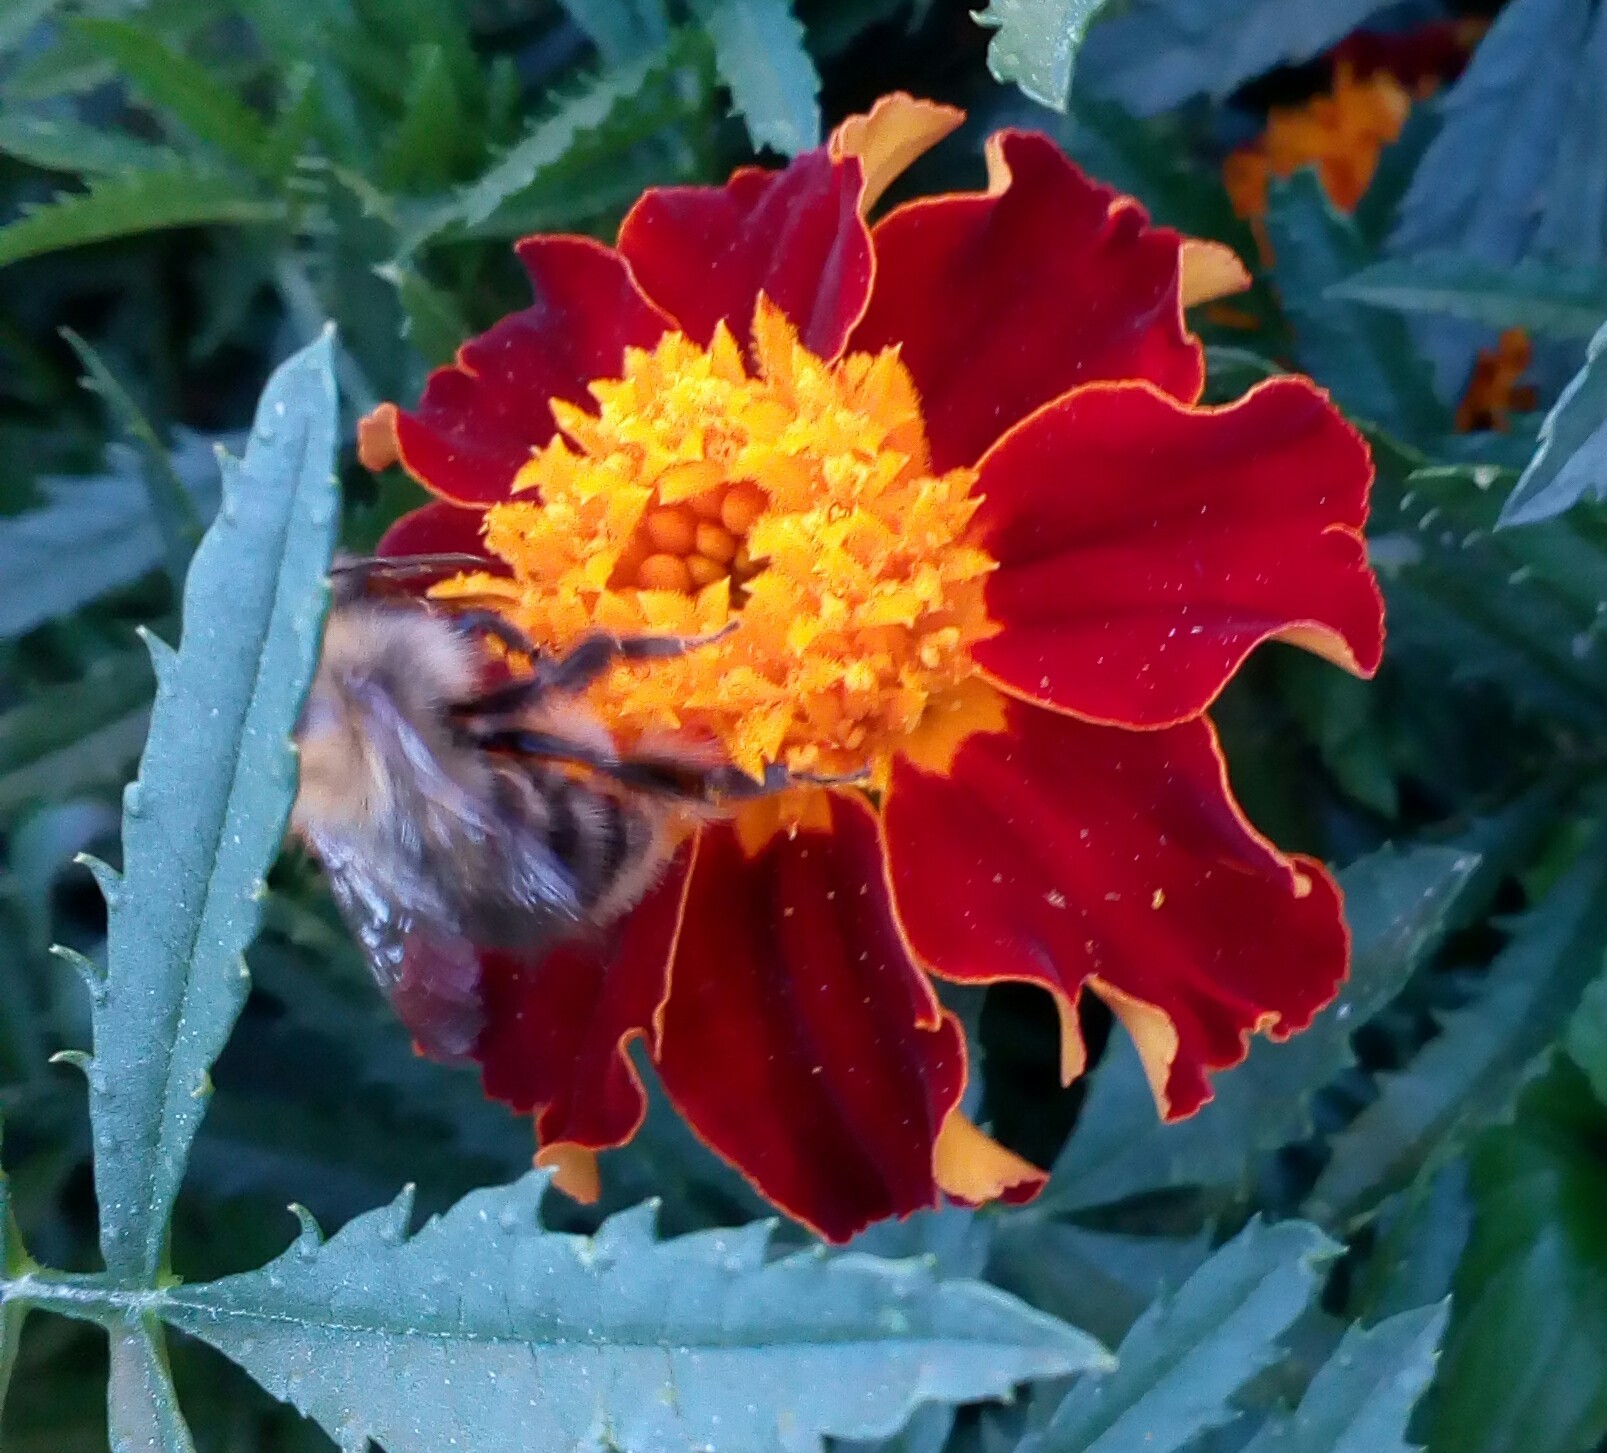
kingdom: Animalia
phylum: Arthropoda
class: Insecta
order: Hymenoptera
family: Apidae
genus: Bombus
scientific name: Bombus pascuorum
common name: Common carder bee
